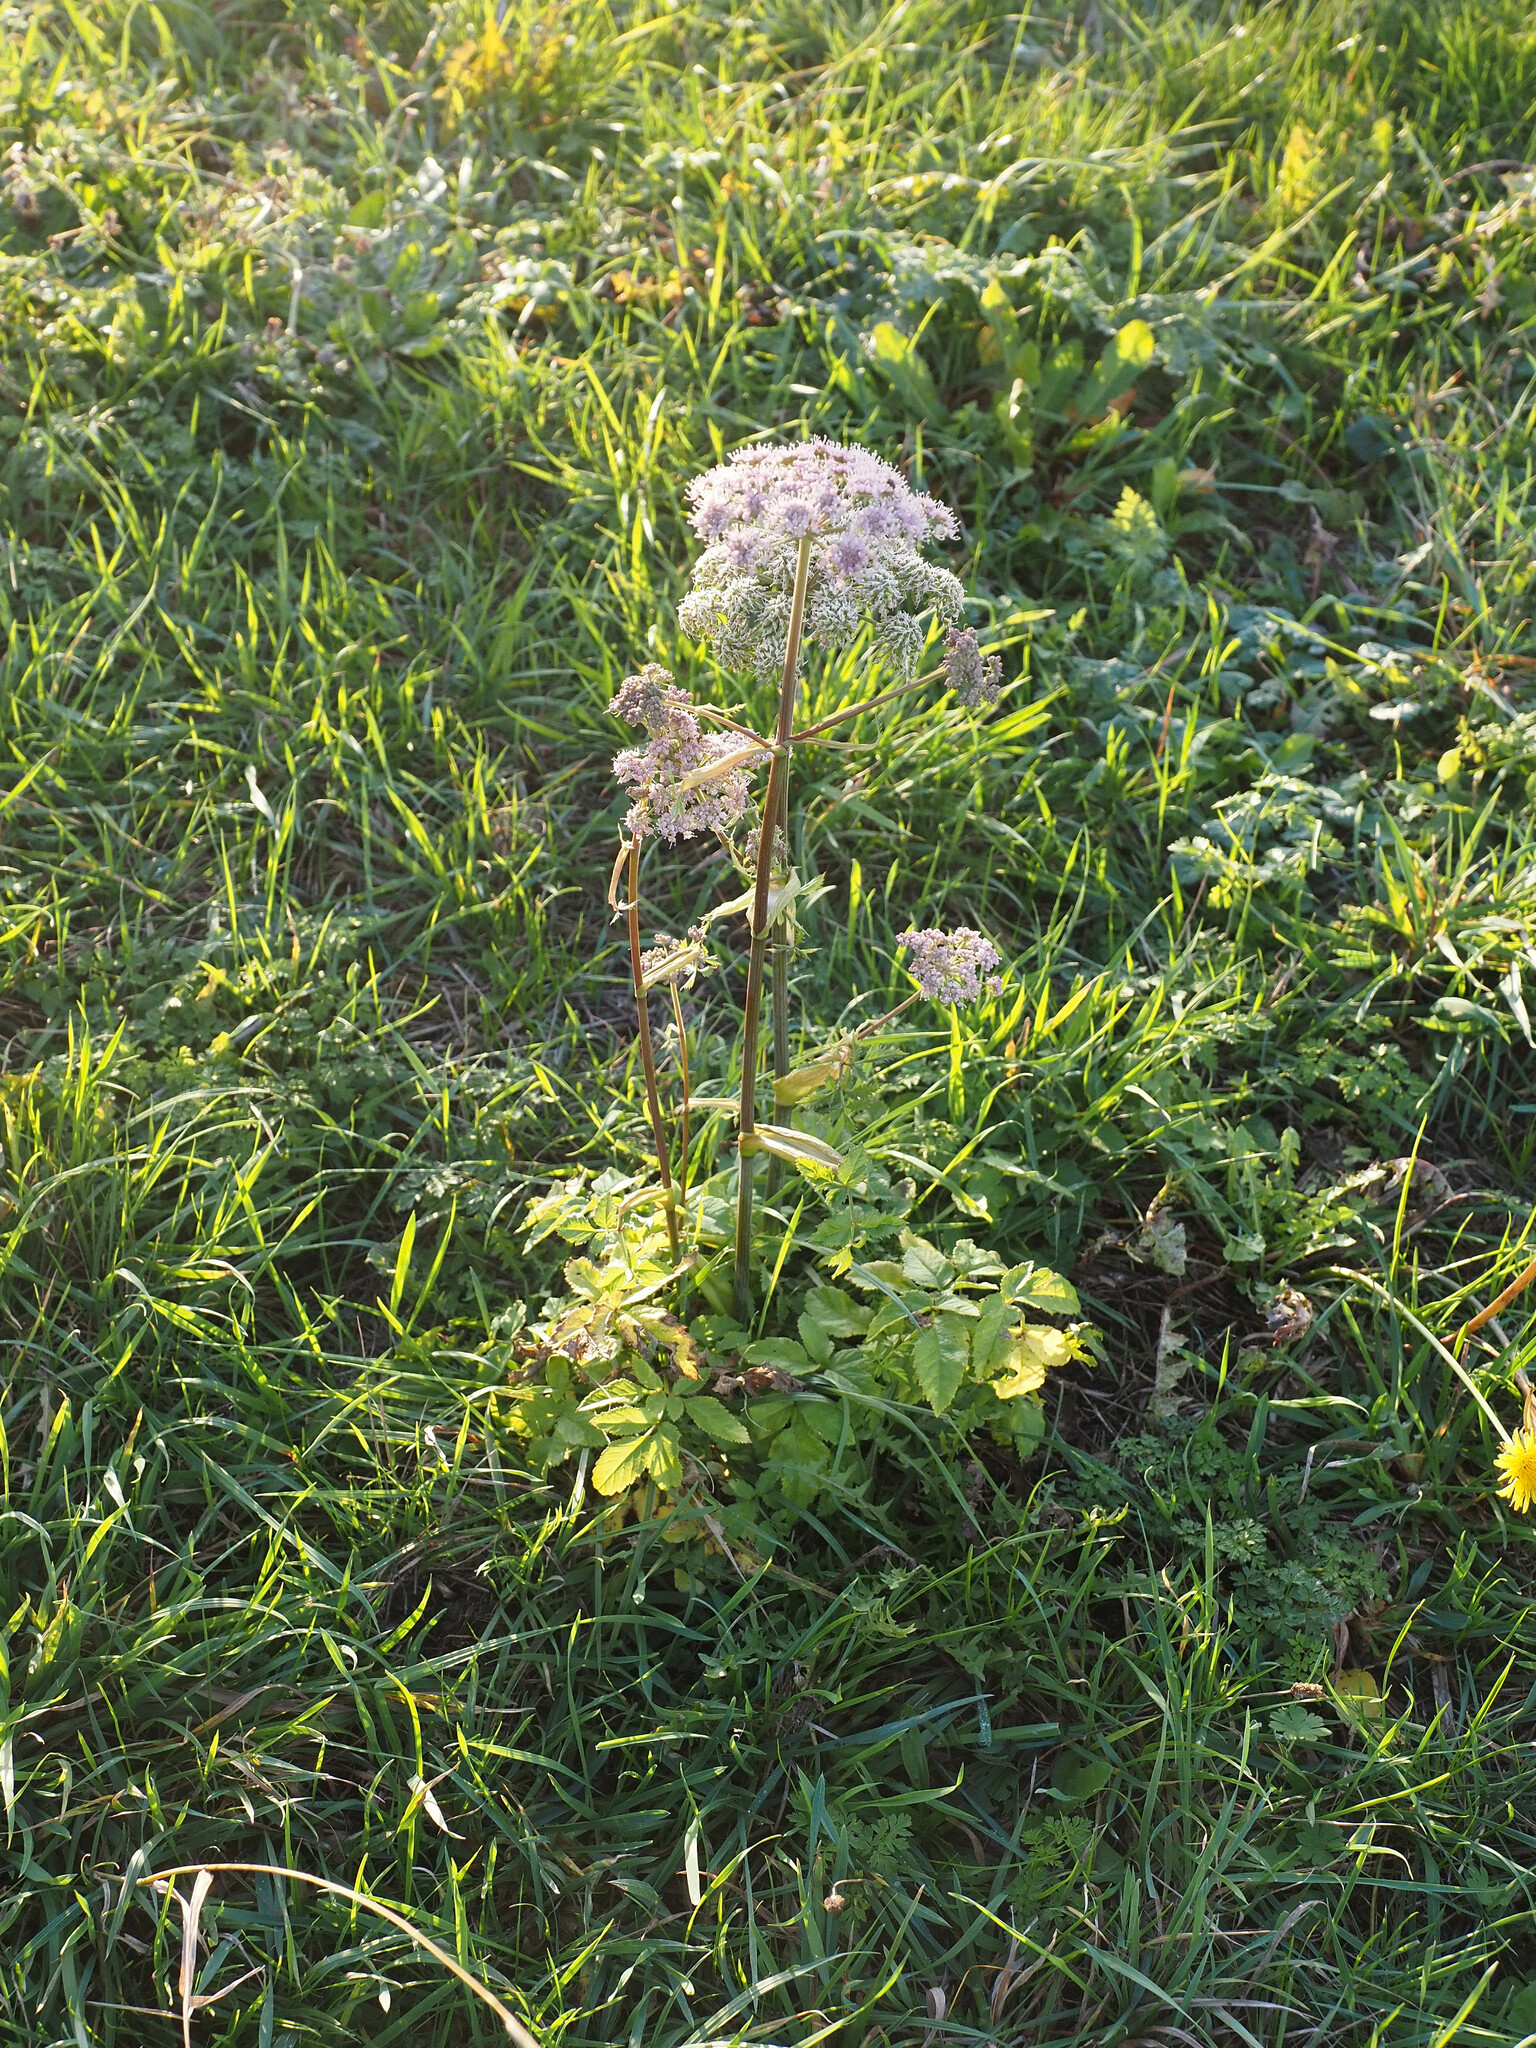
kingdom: Plantae
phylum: Tracheophyta
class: Magnoliopsida
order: Apiales
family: Apiaceae
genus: Angelica
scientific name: Angelica sylvestris
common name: Wild angelica
